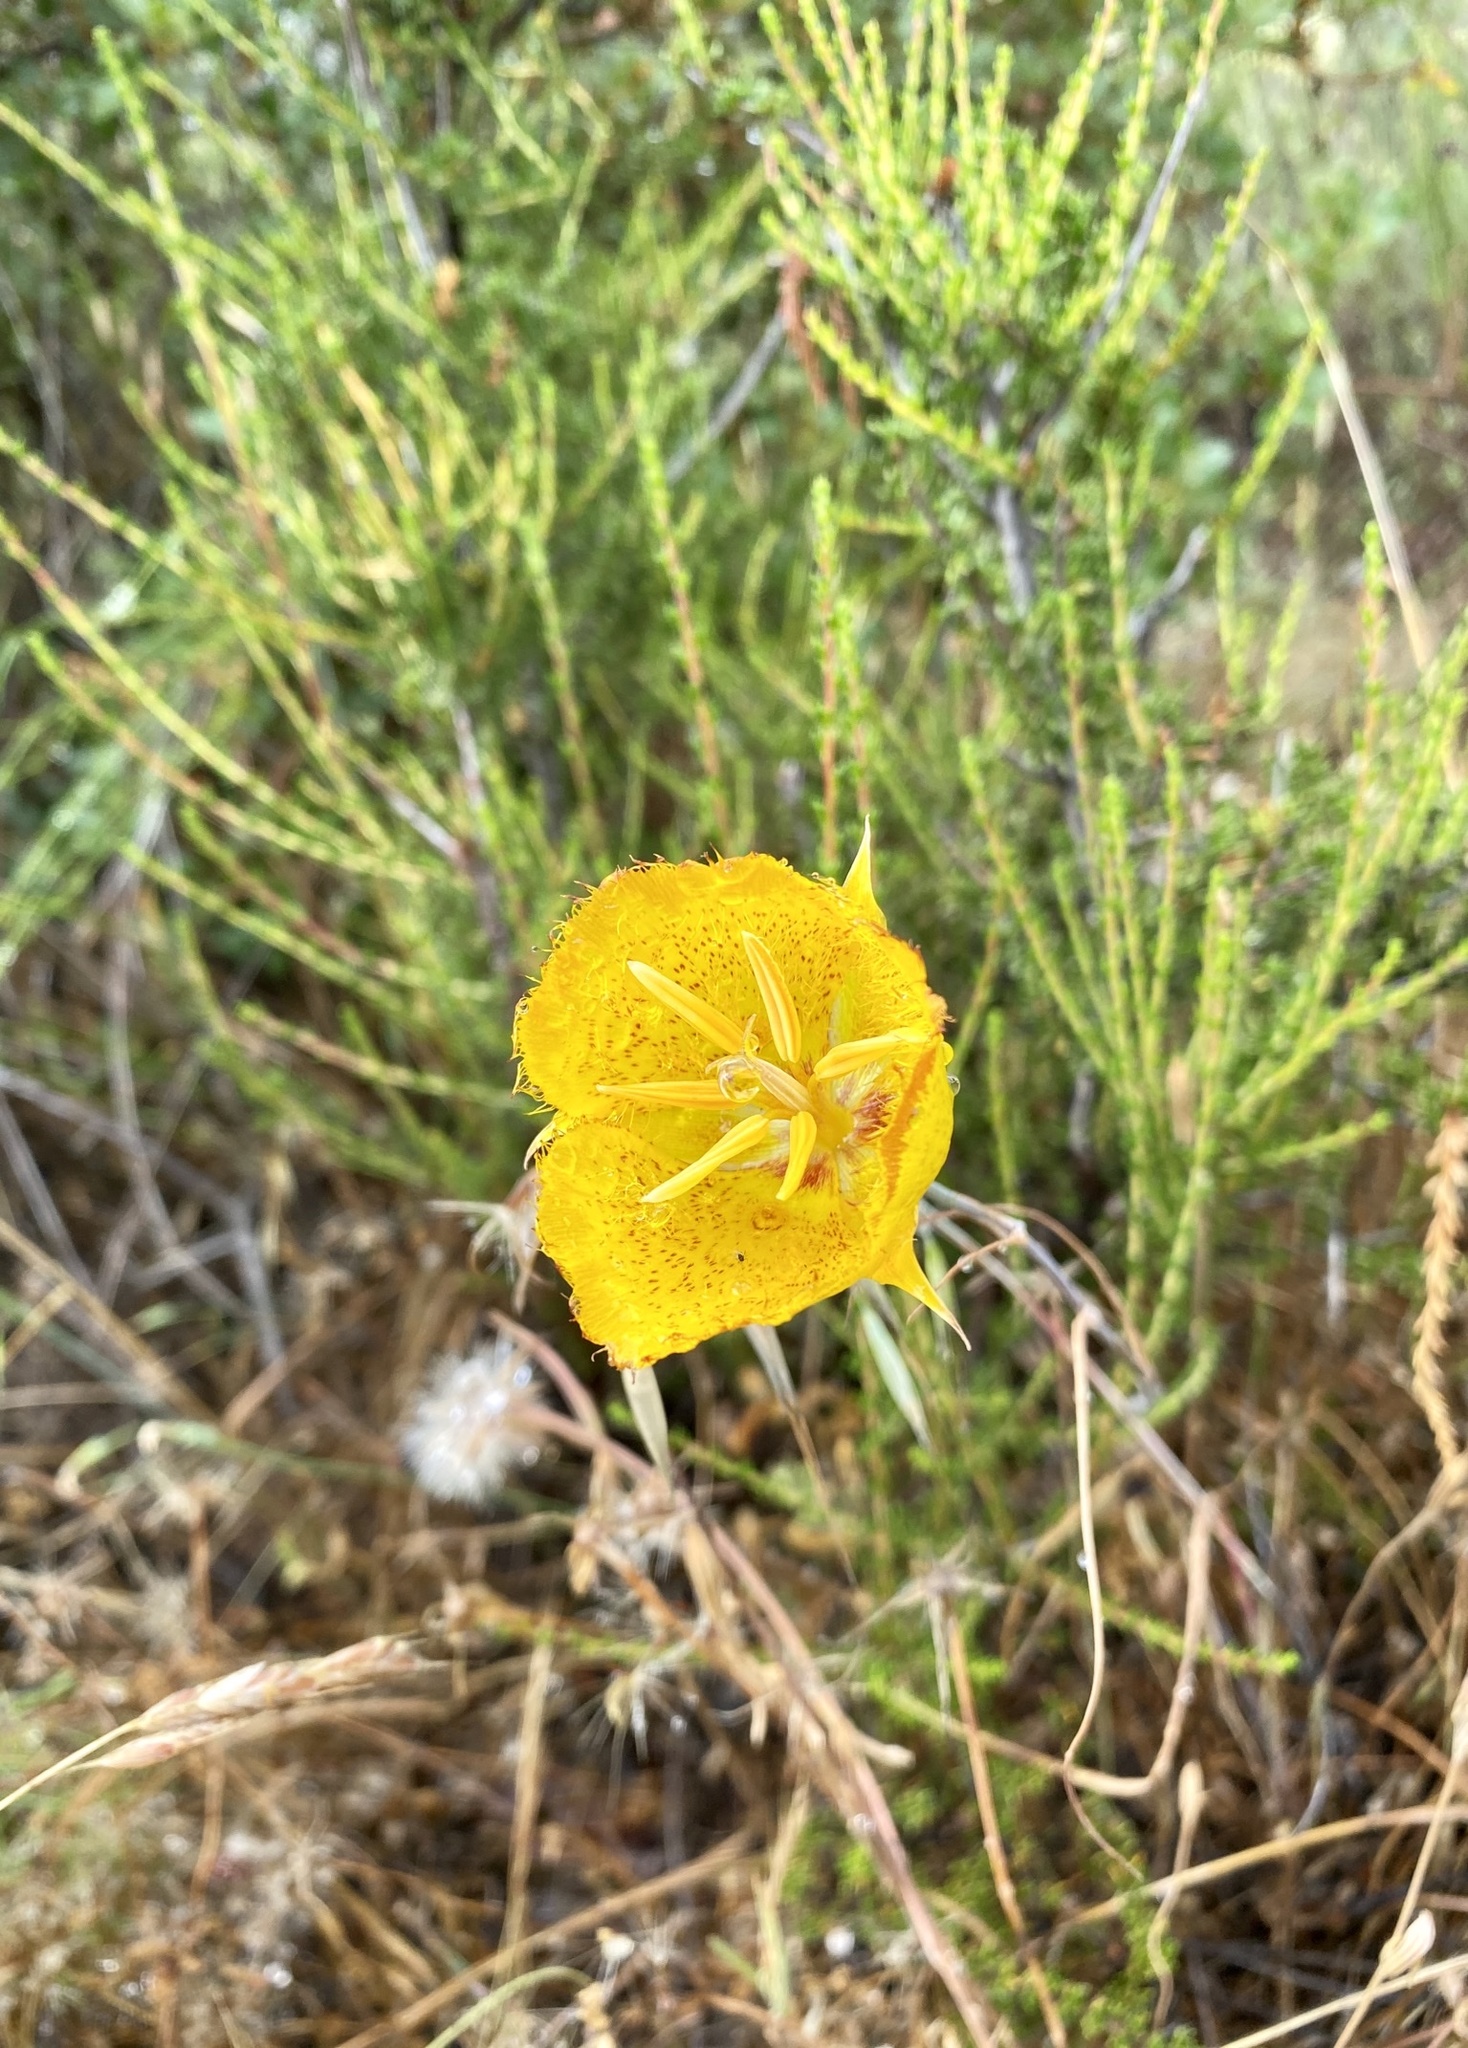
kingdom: Plantae
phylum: Tracheophyta
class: Liliopsida
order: Liliales
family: Liliaceae
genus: Calochortus
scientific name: Calochortus weedii
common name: Weed's mariposa-lily
